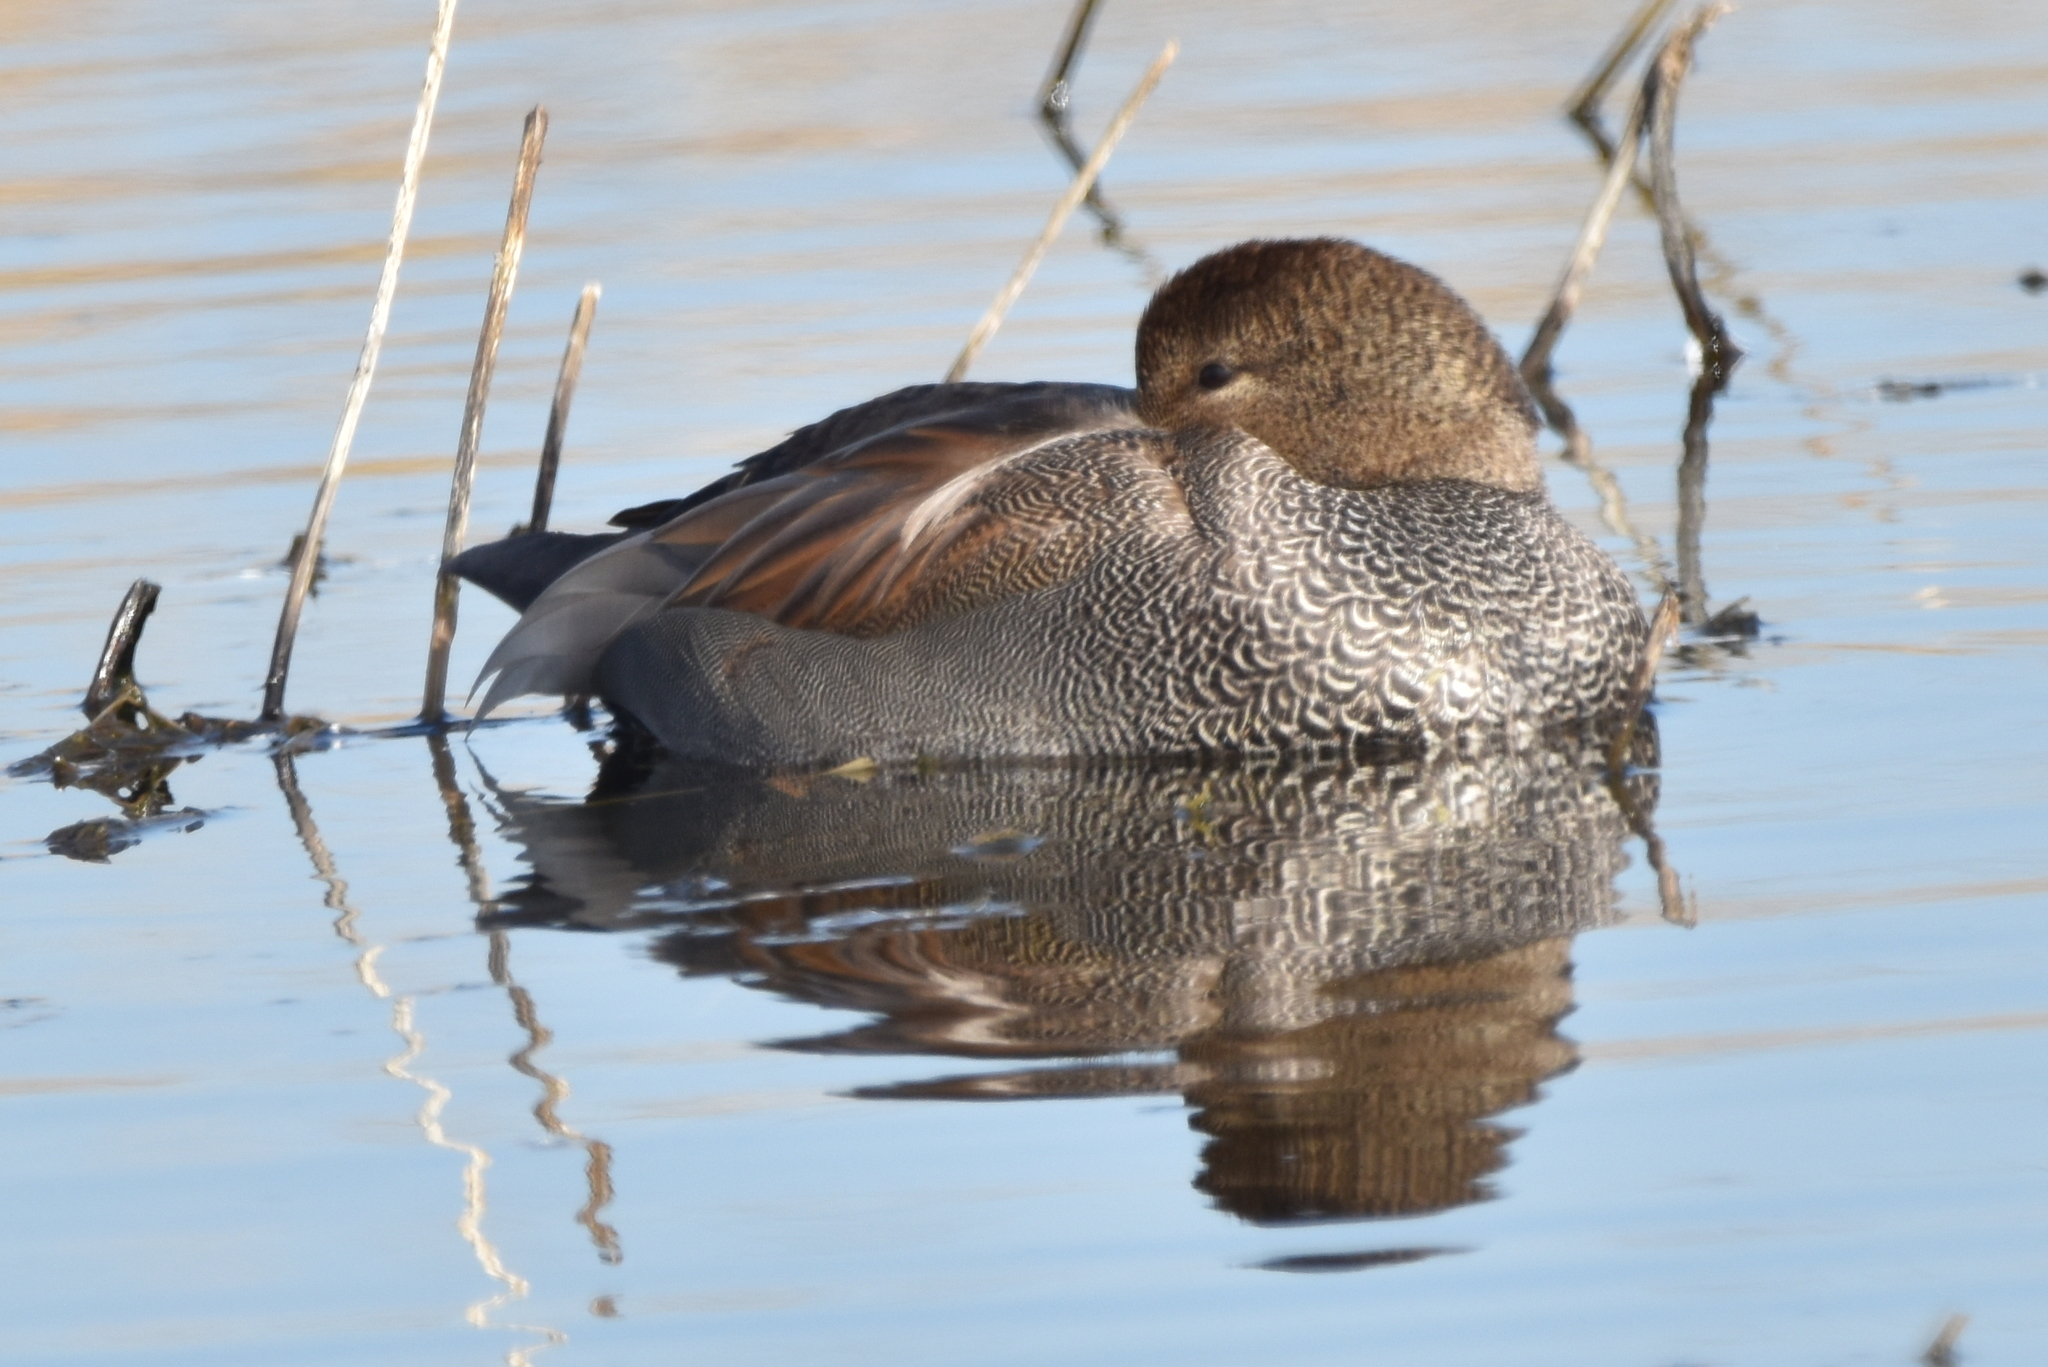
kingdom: Animalia
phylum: Chordata
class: Aves
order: Anseriformes
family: Anatidae
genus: Mareca
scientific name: Mareca strepera
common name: Gadwall
